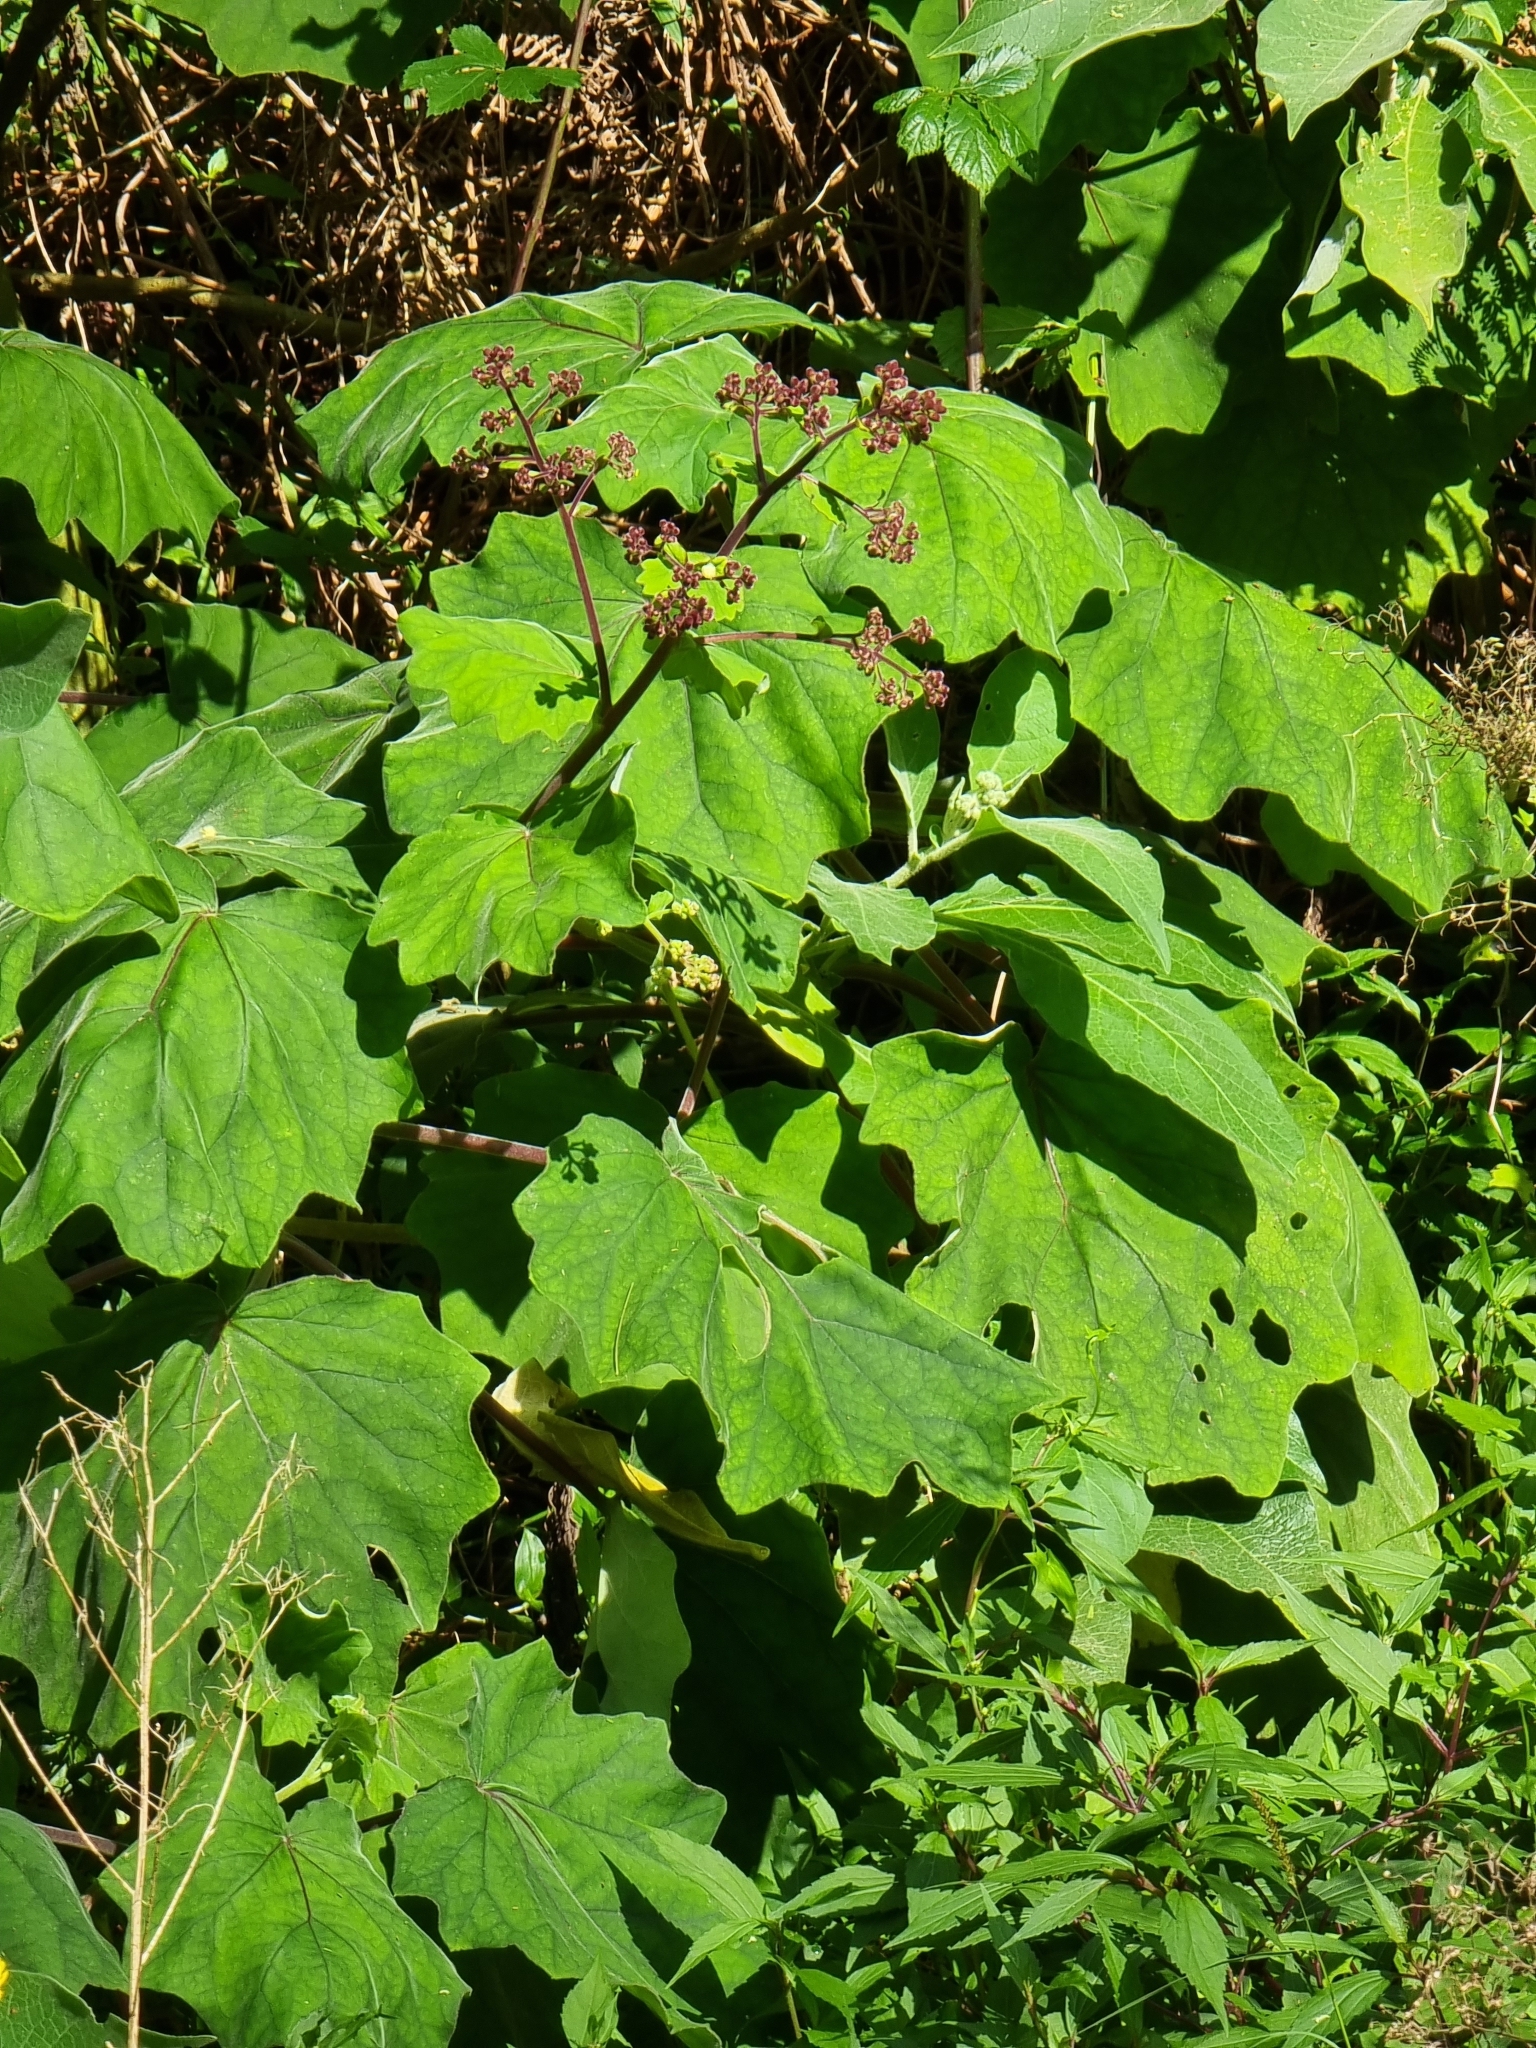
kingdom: Plantae
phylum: Tracheophyta
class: Magnoliopsida
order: Asterales
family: Asteraceae
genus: Roldana
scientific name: Roldana petasitis
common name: California-geranium
